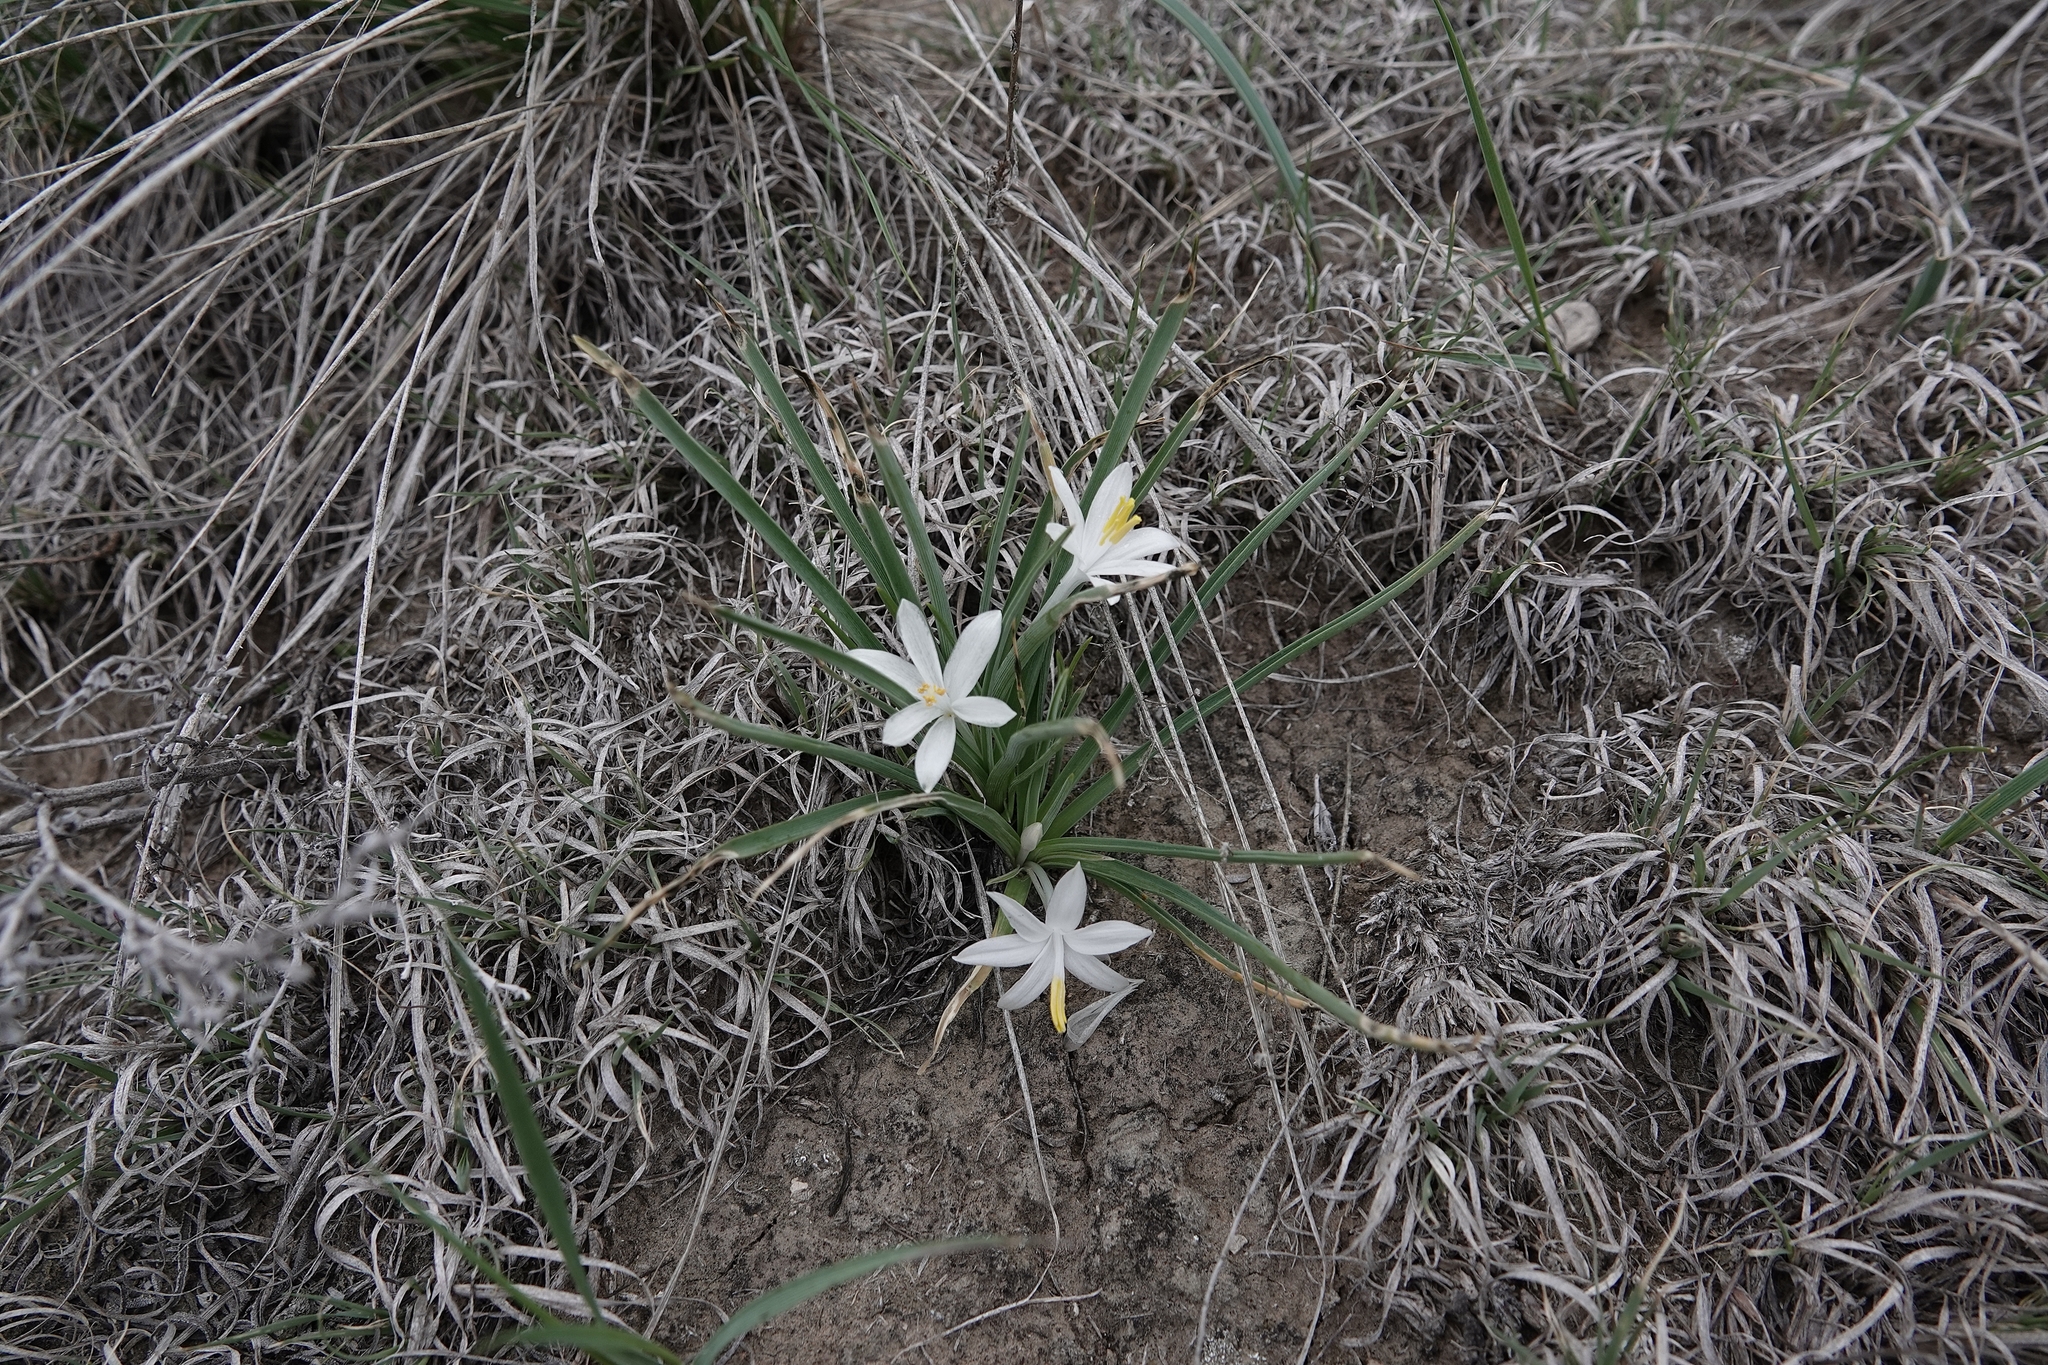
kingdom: Plantae
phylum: Tracheophyta
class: Liliopsida
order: Asparagales
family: Asparagaceae
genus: Leucocrinum
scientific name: Leucocrinum montanum
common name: Mountain-lily
